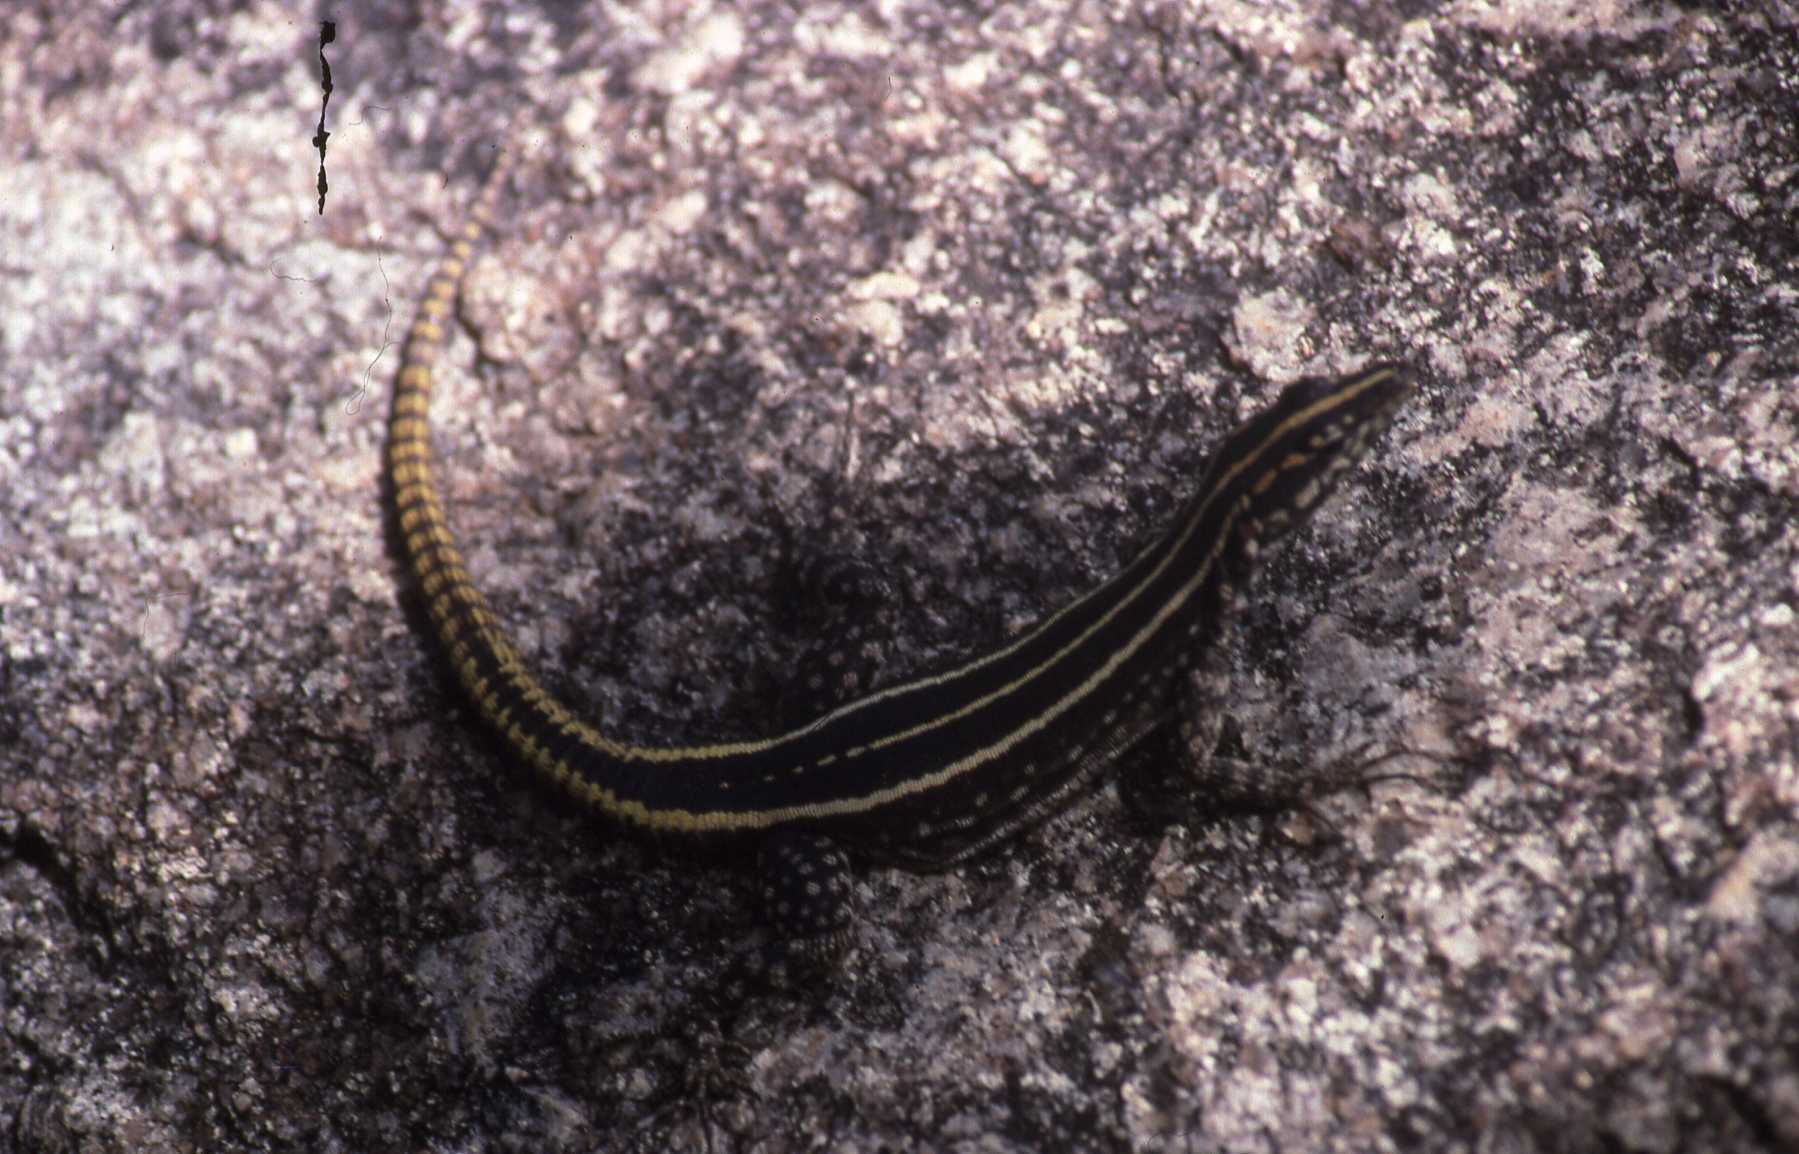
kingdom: Animalia
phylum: Chordata
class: Squamata
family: Cordylidae
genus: Platysaurus
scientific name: Platysaurus intermedius
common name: Common flat lizard
